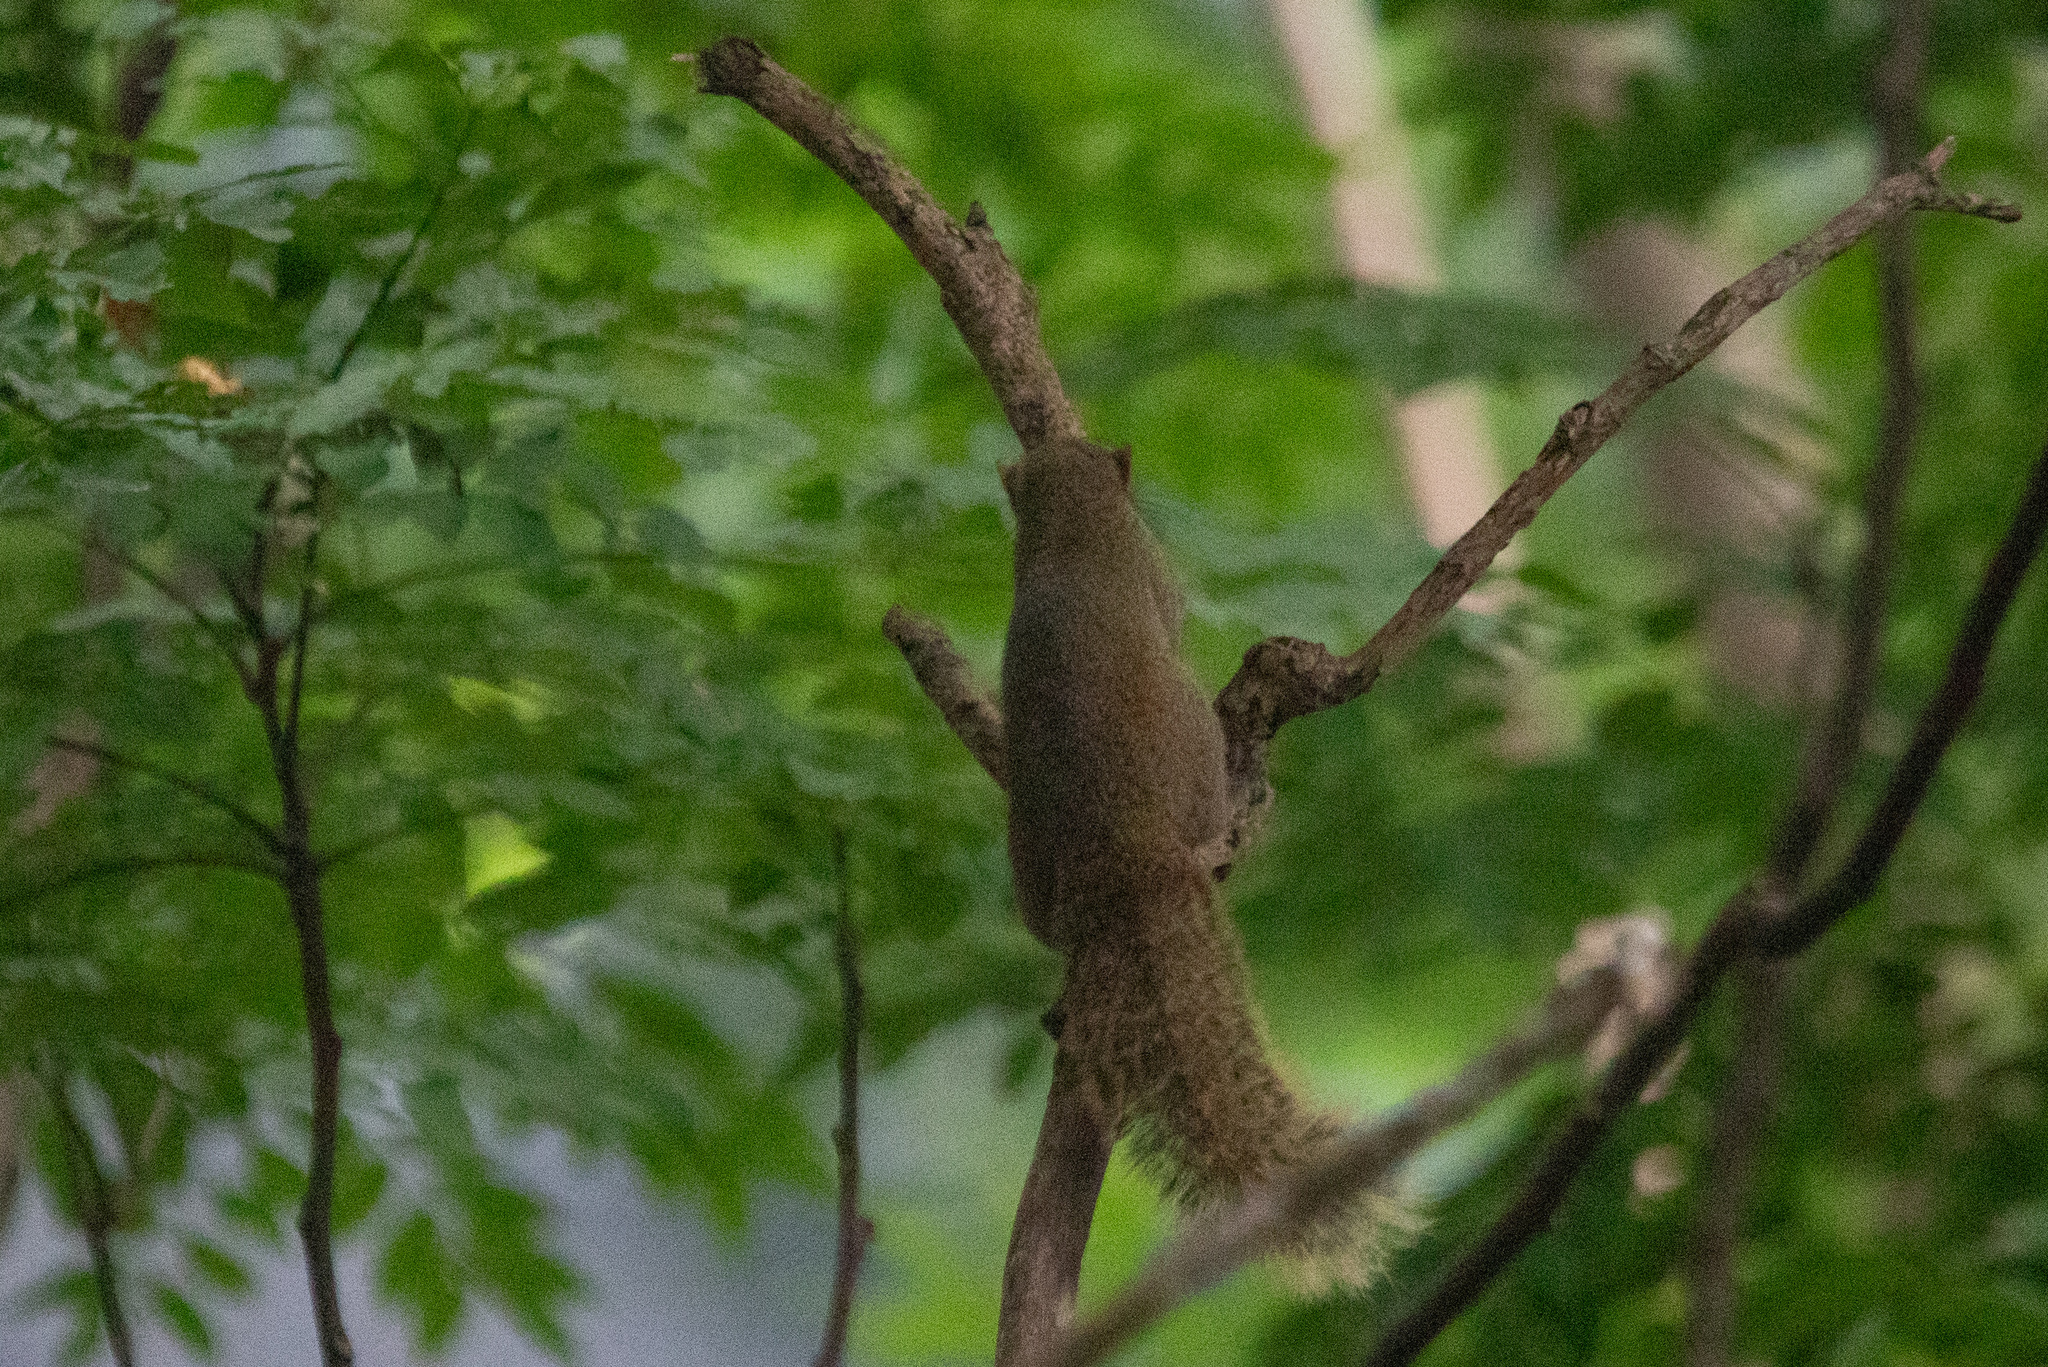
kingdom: Animalia
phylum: Chordata
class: Mammalia
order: Rodentia
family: Sciuridae
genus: Callosciurus
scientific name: Callosciurus erythraeus
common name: Pallas's squirrel
